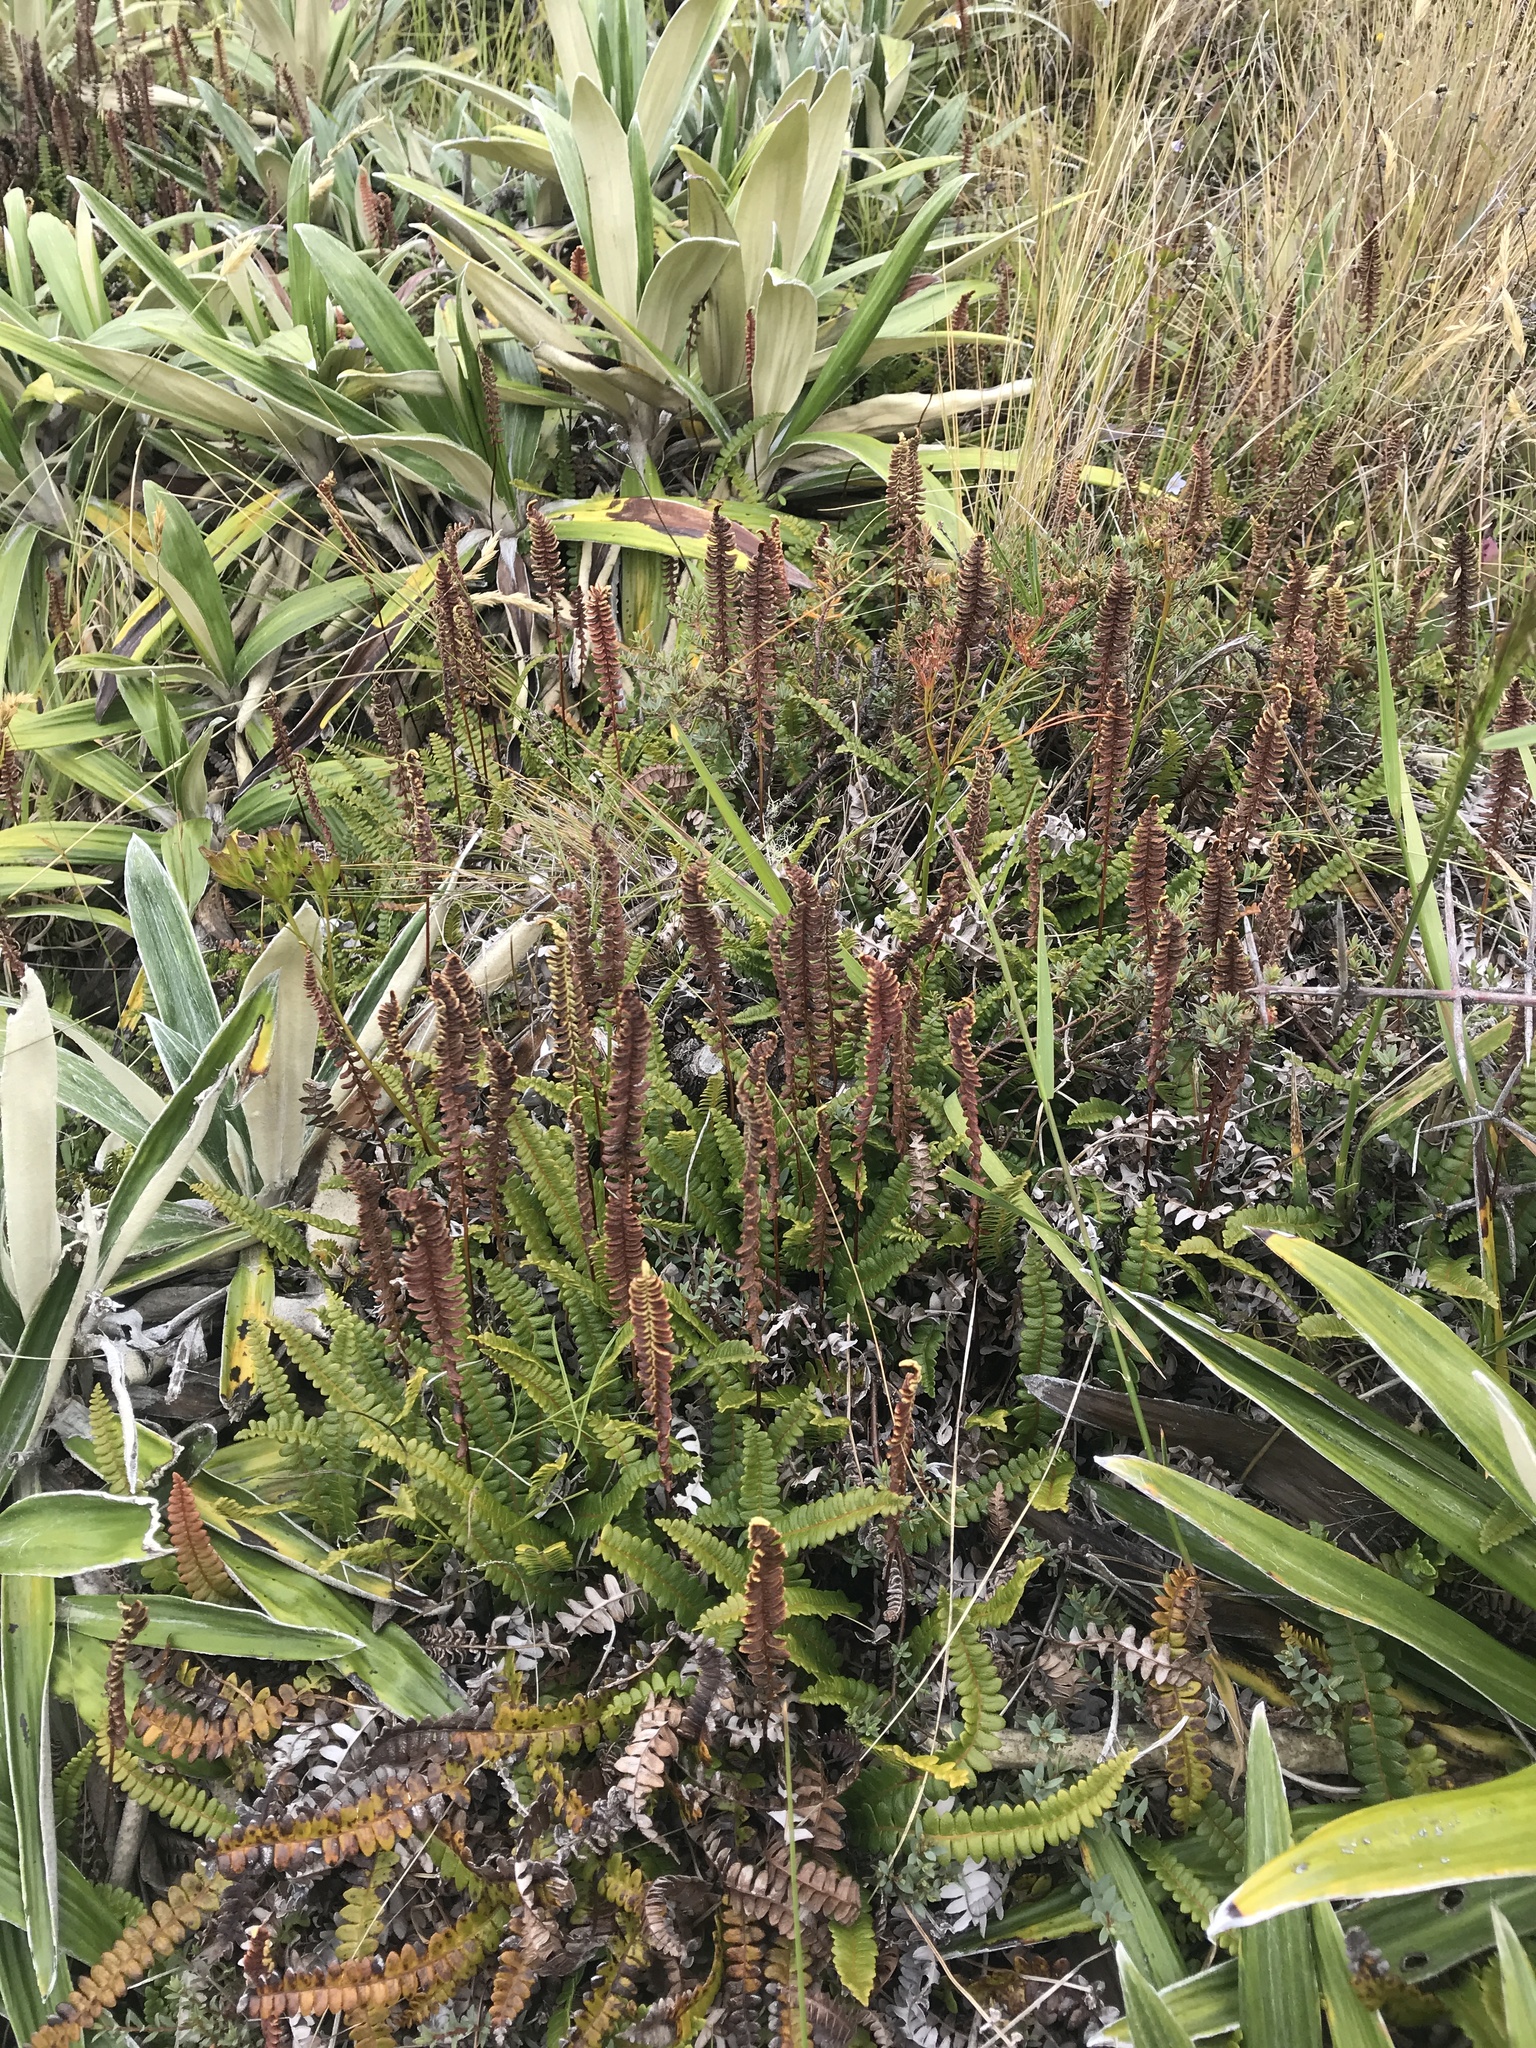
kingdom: Plantae
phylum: Tracheophyta
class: Polypodiopsida
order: Polypodiales
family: Blechnaceae
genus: Austroblechnum
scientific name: Austroblechnum penna-marina
